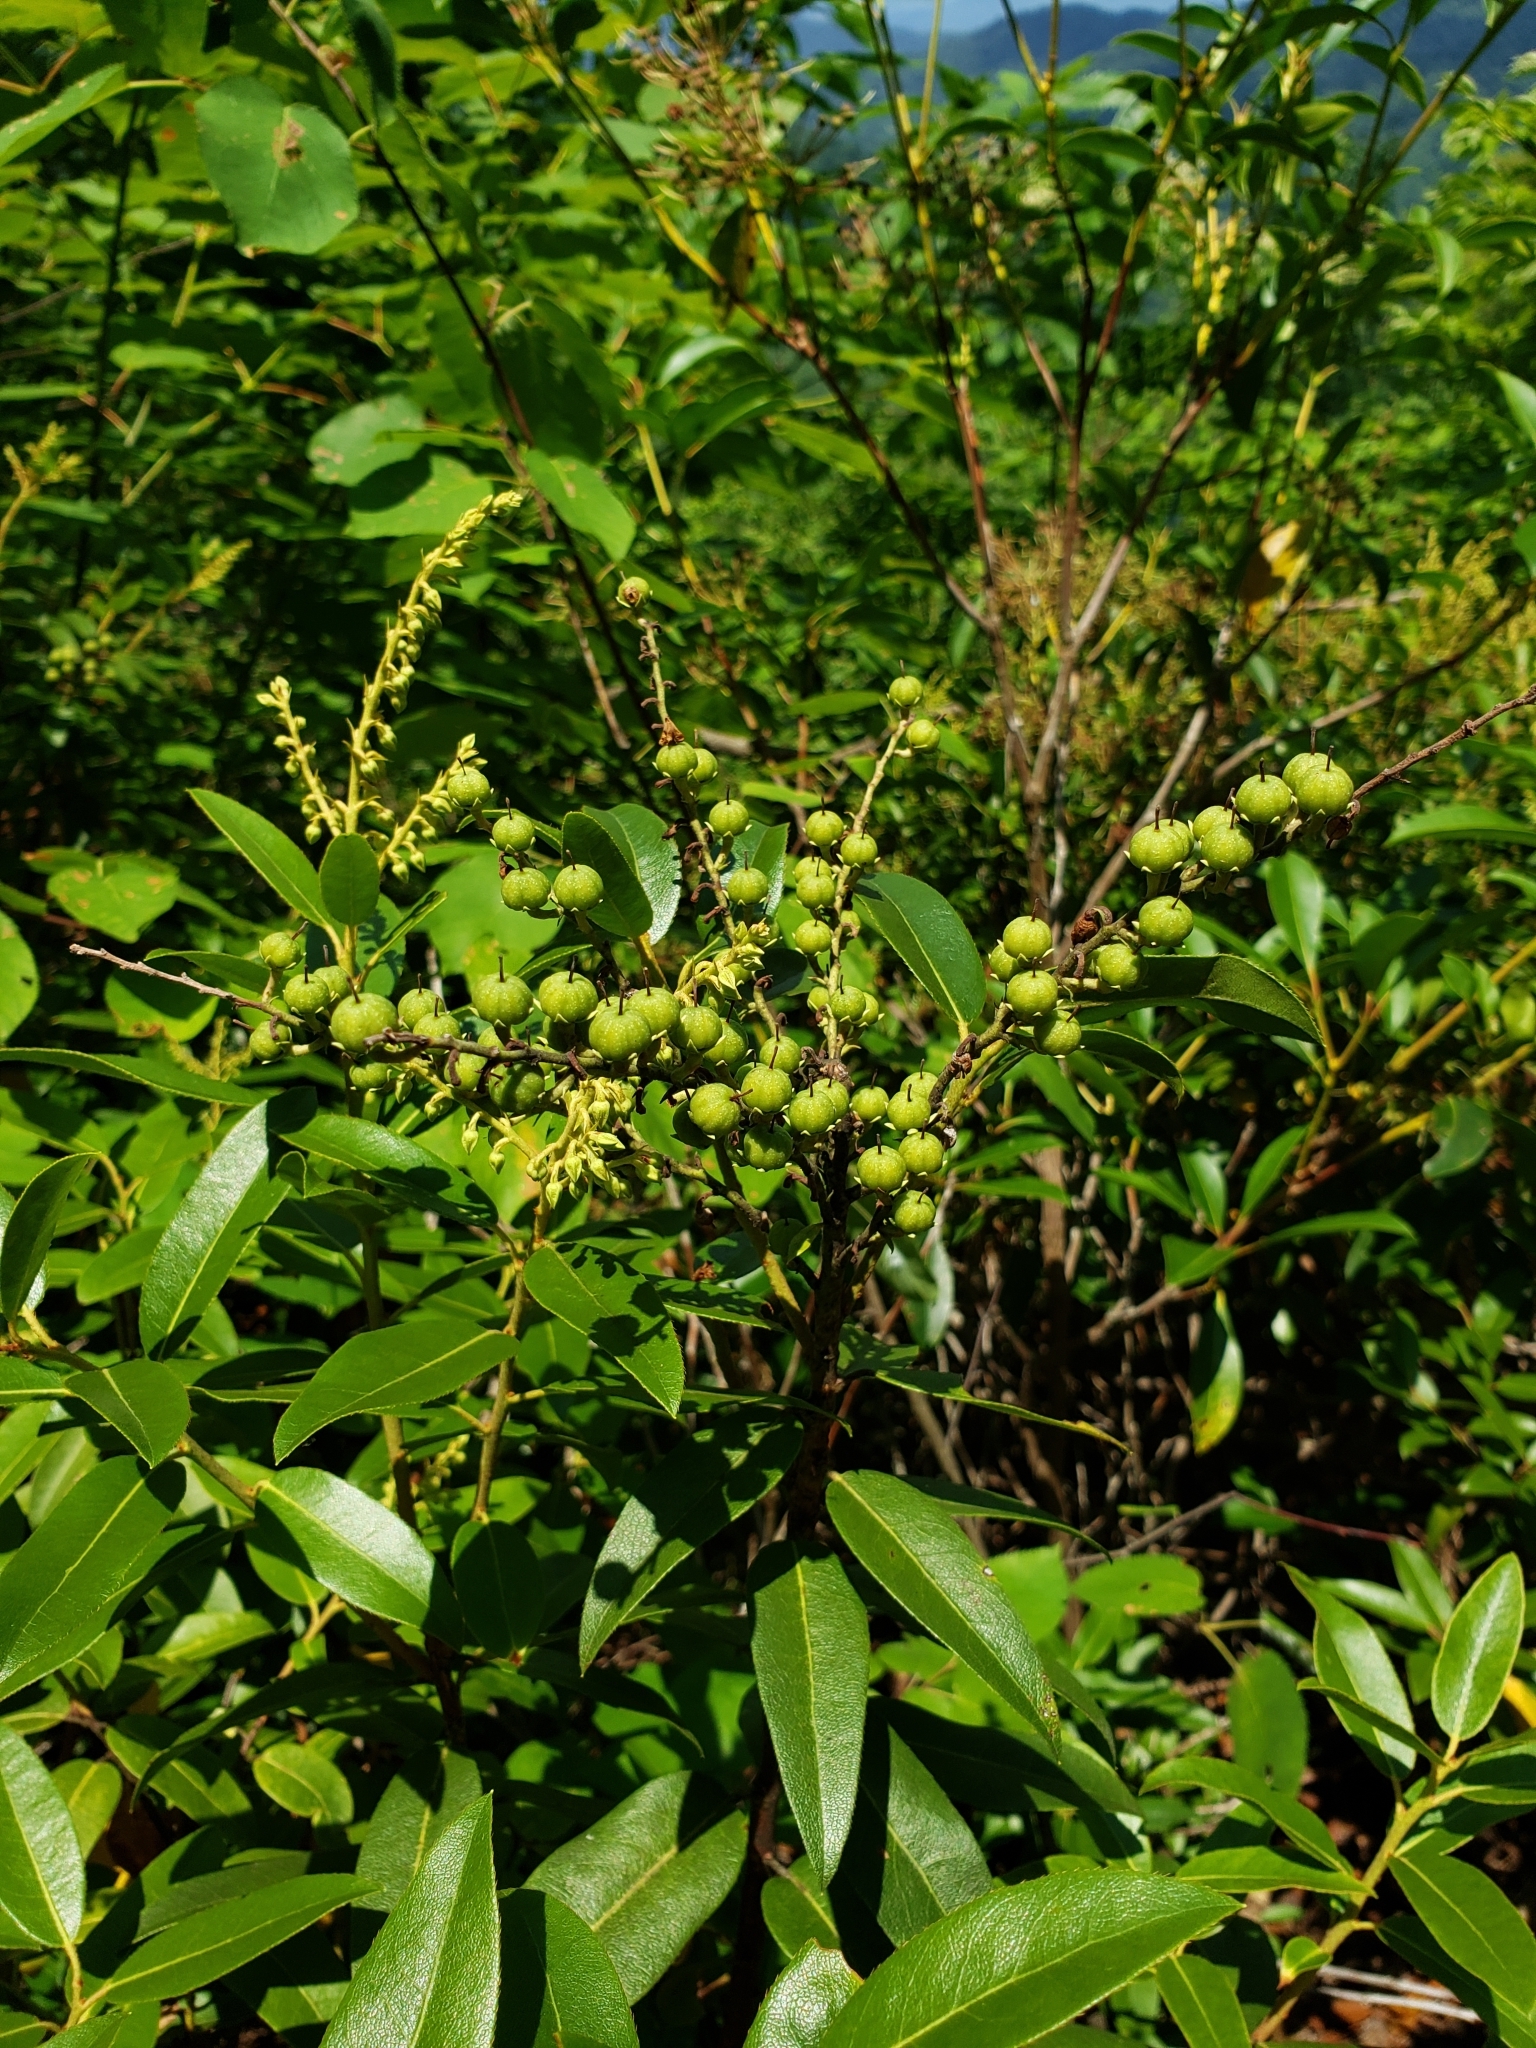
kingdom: Plantae
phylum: Tracheophyta
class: Magnoliopsida
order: Ericales
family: Ericaceae
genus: Pieris
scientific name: Pieris floribunda
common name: Flutterbush
